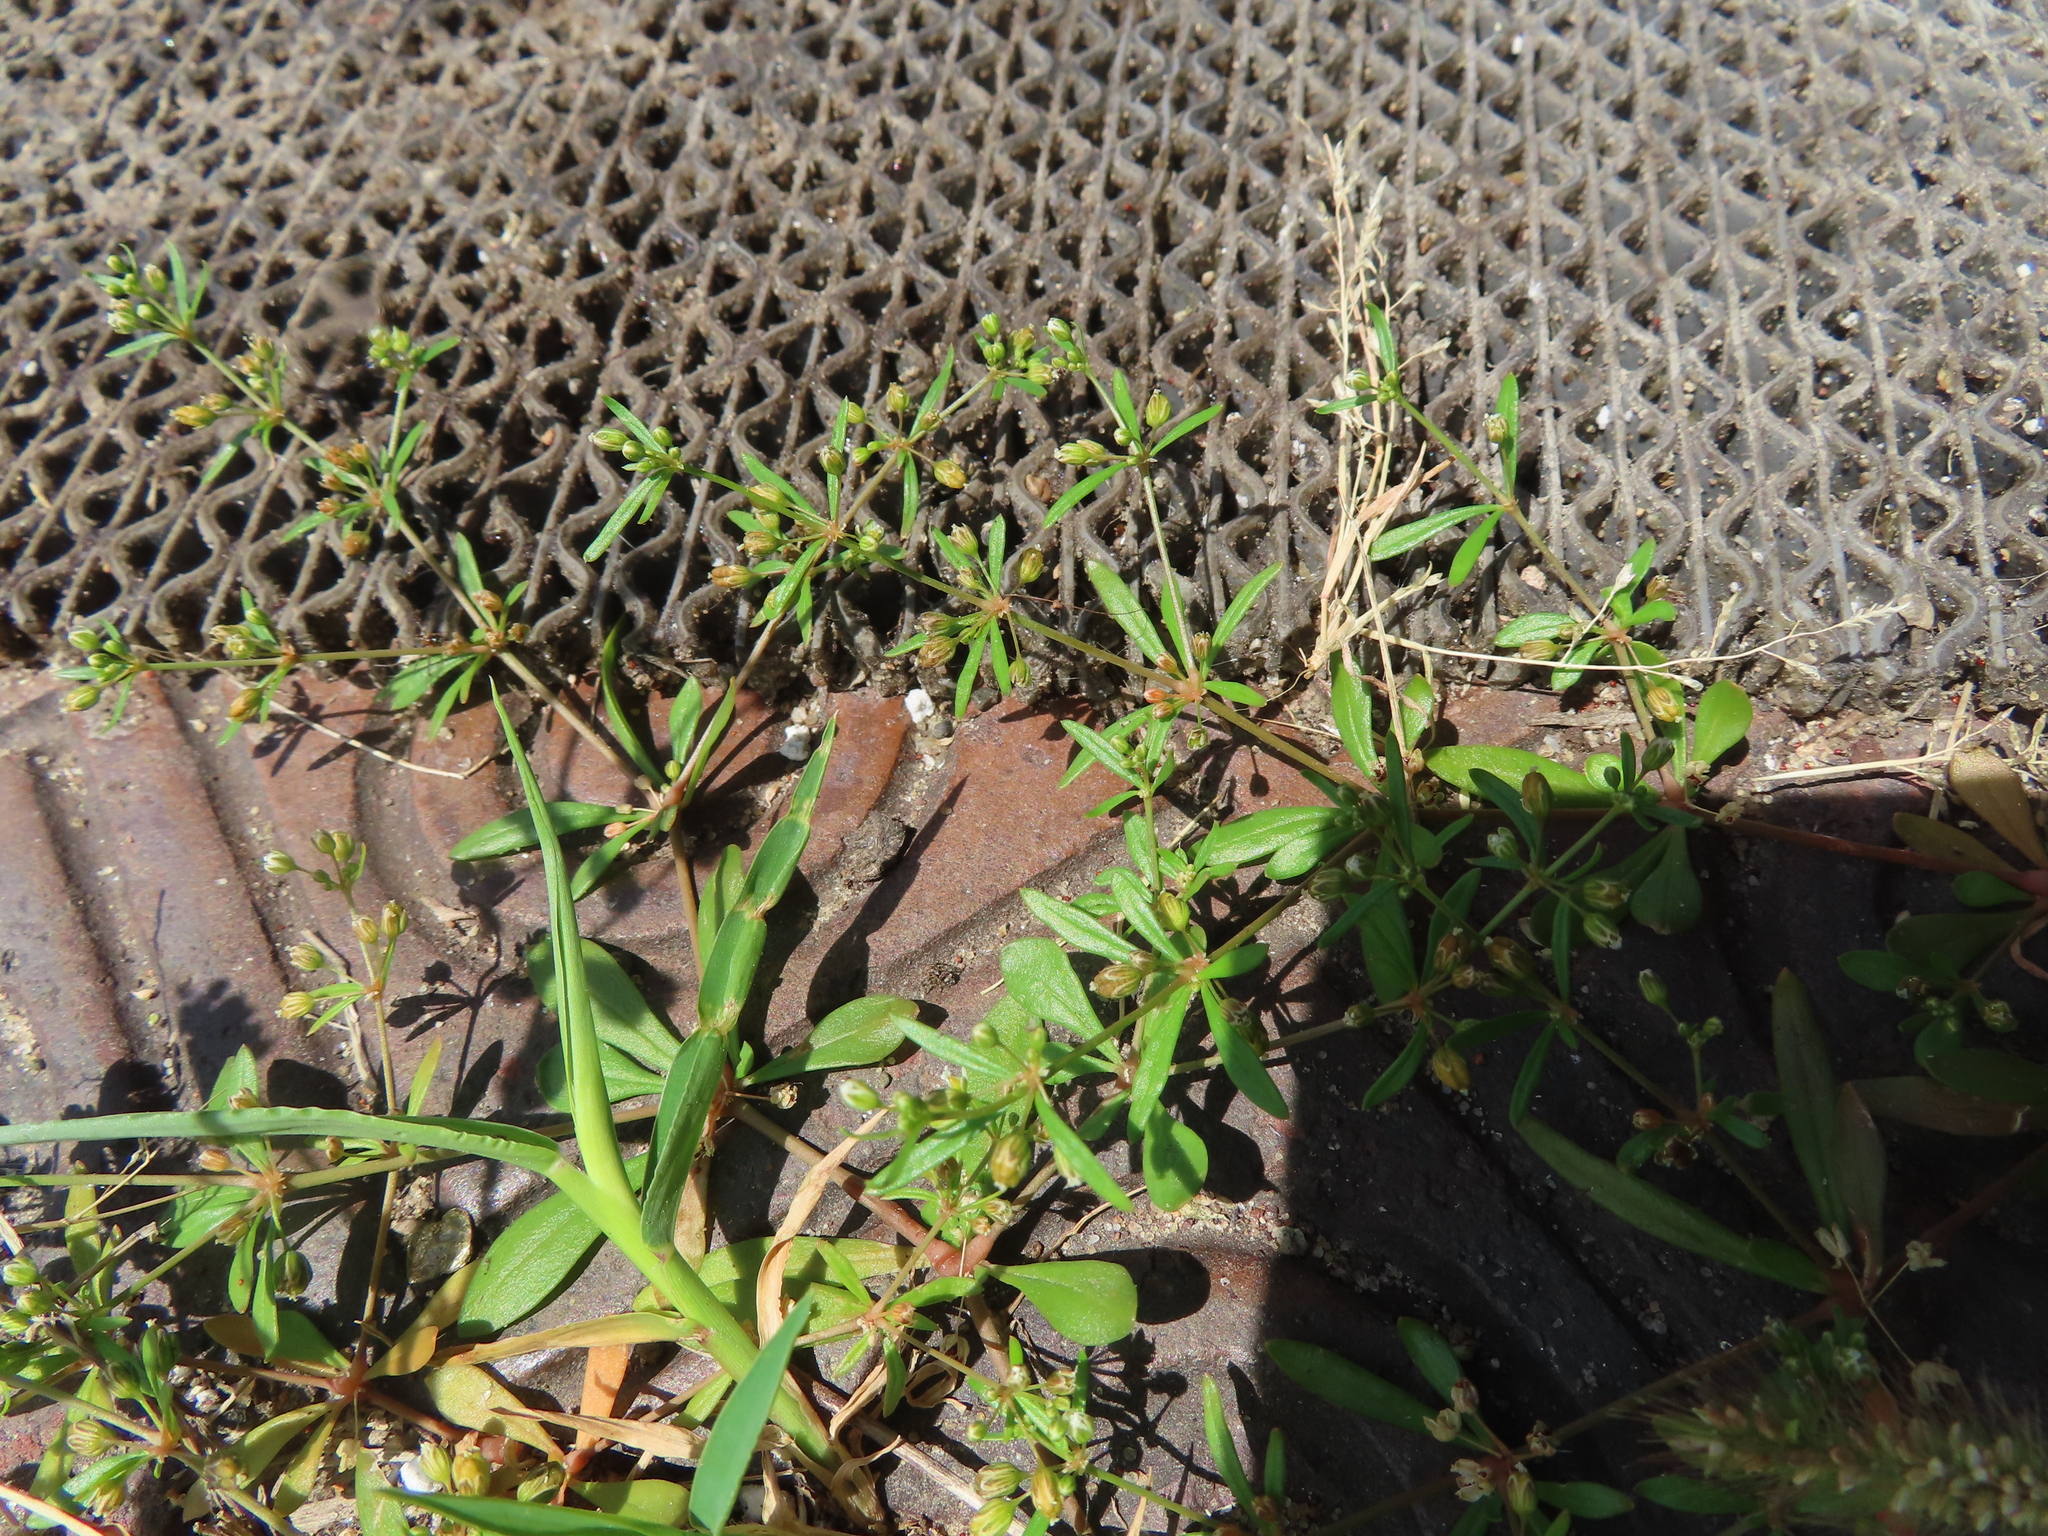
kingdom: Plantae
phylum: Tracheophyta
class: Magnoliopsida
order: Caryophyllales
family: Molluginaceae
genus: Mollugo
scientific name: Mollugo verticillata
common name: Green carpetweed
